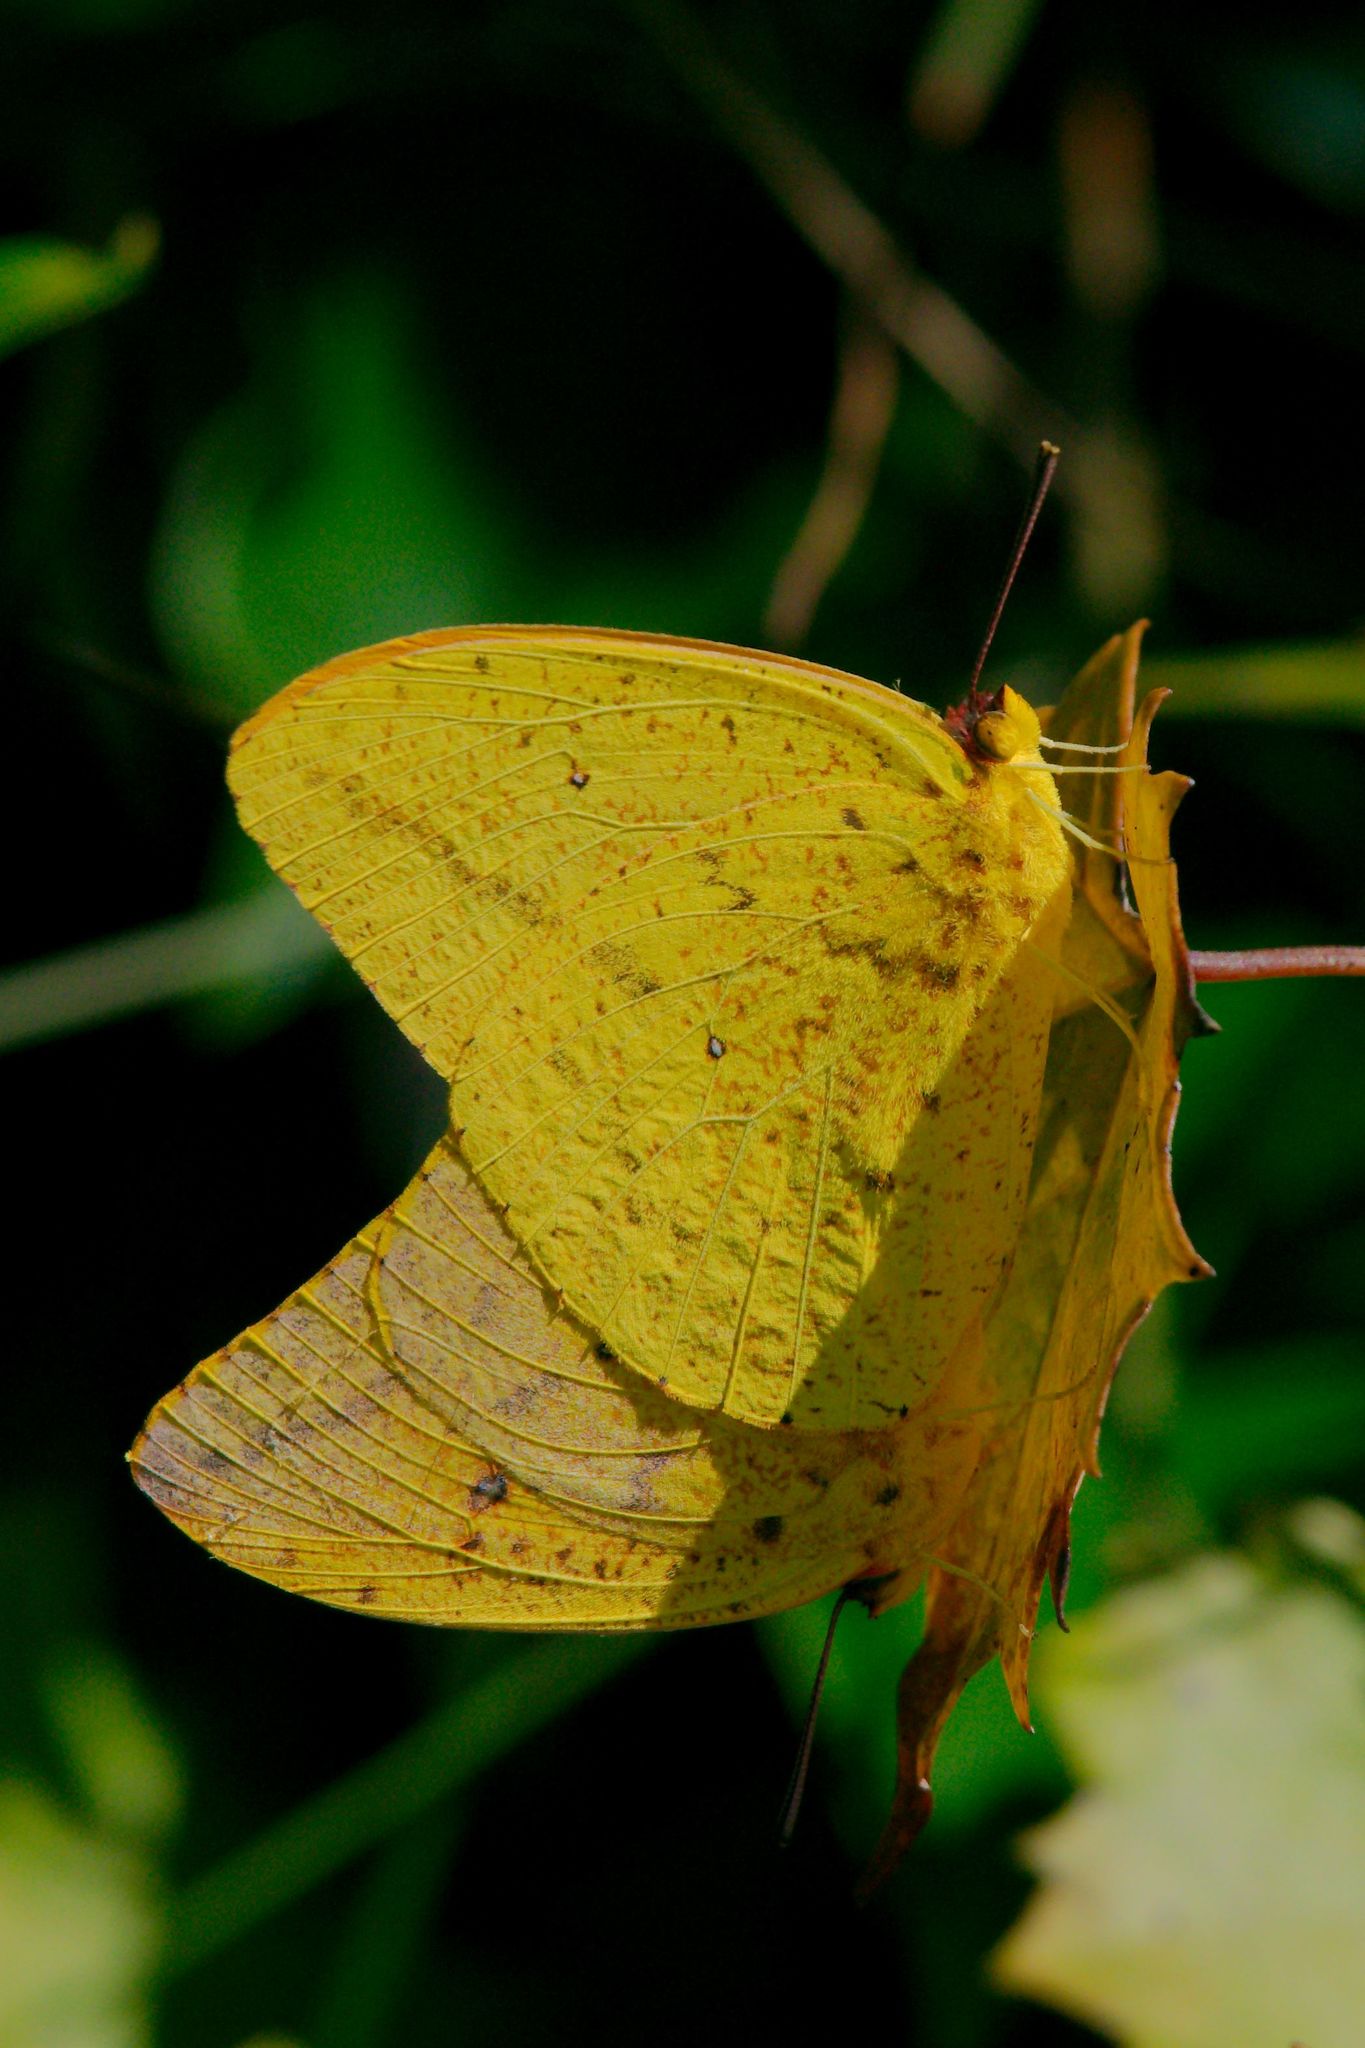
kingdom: Animalia
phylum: Arthropoda
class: Insecta
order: Lepidoptera
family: Pieridae
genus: Phoebis
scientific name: Phoebis agarithe
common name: Large orange sulphur
